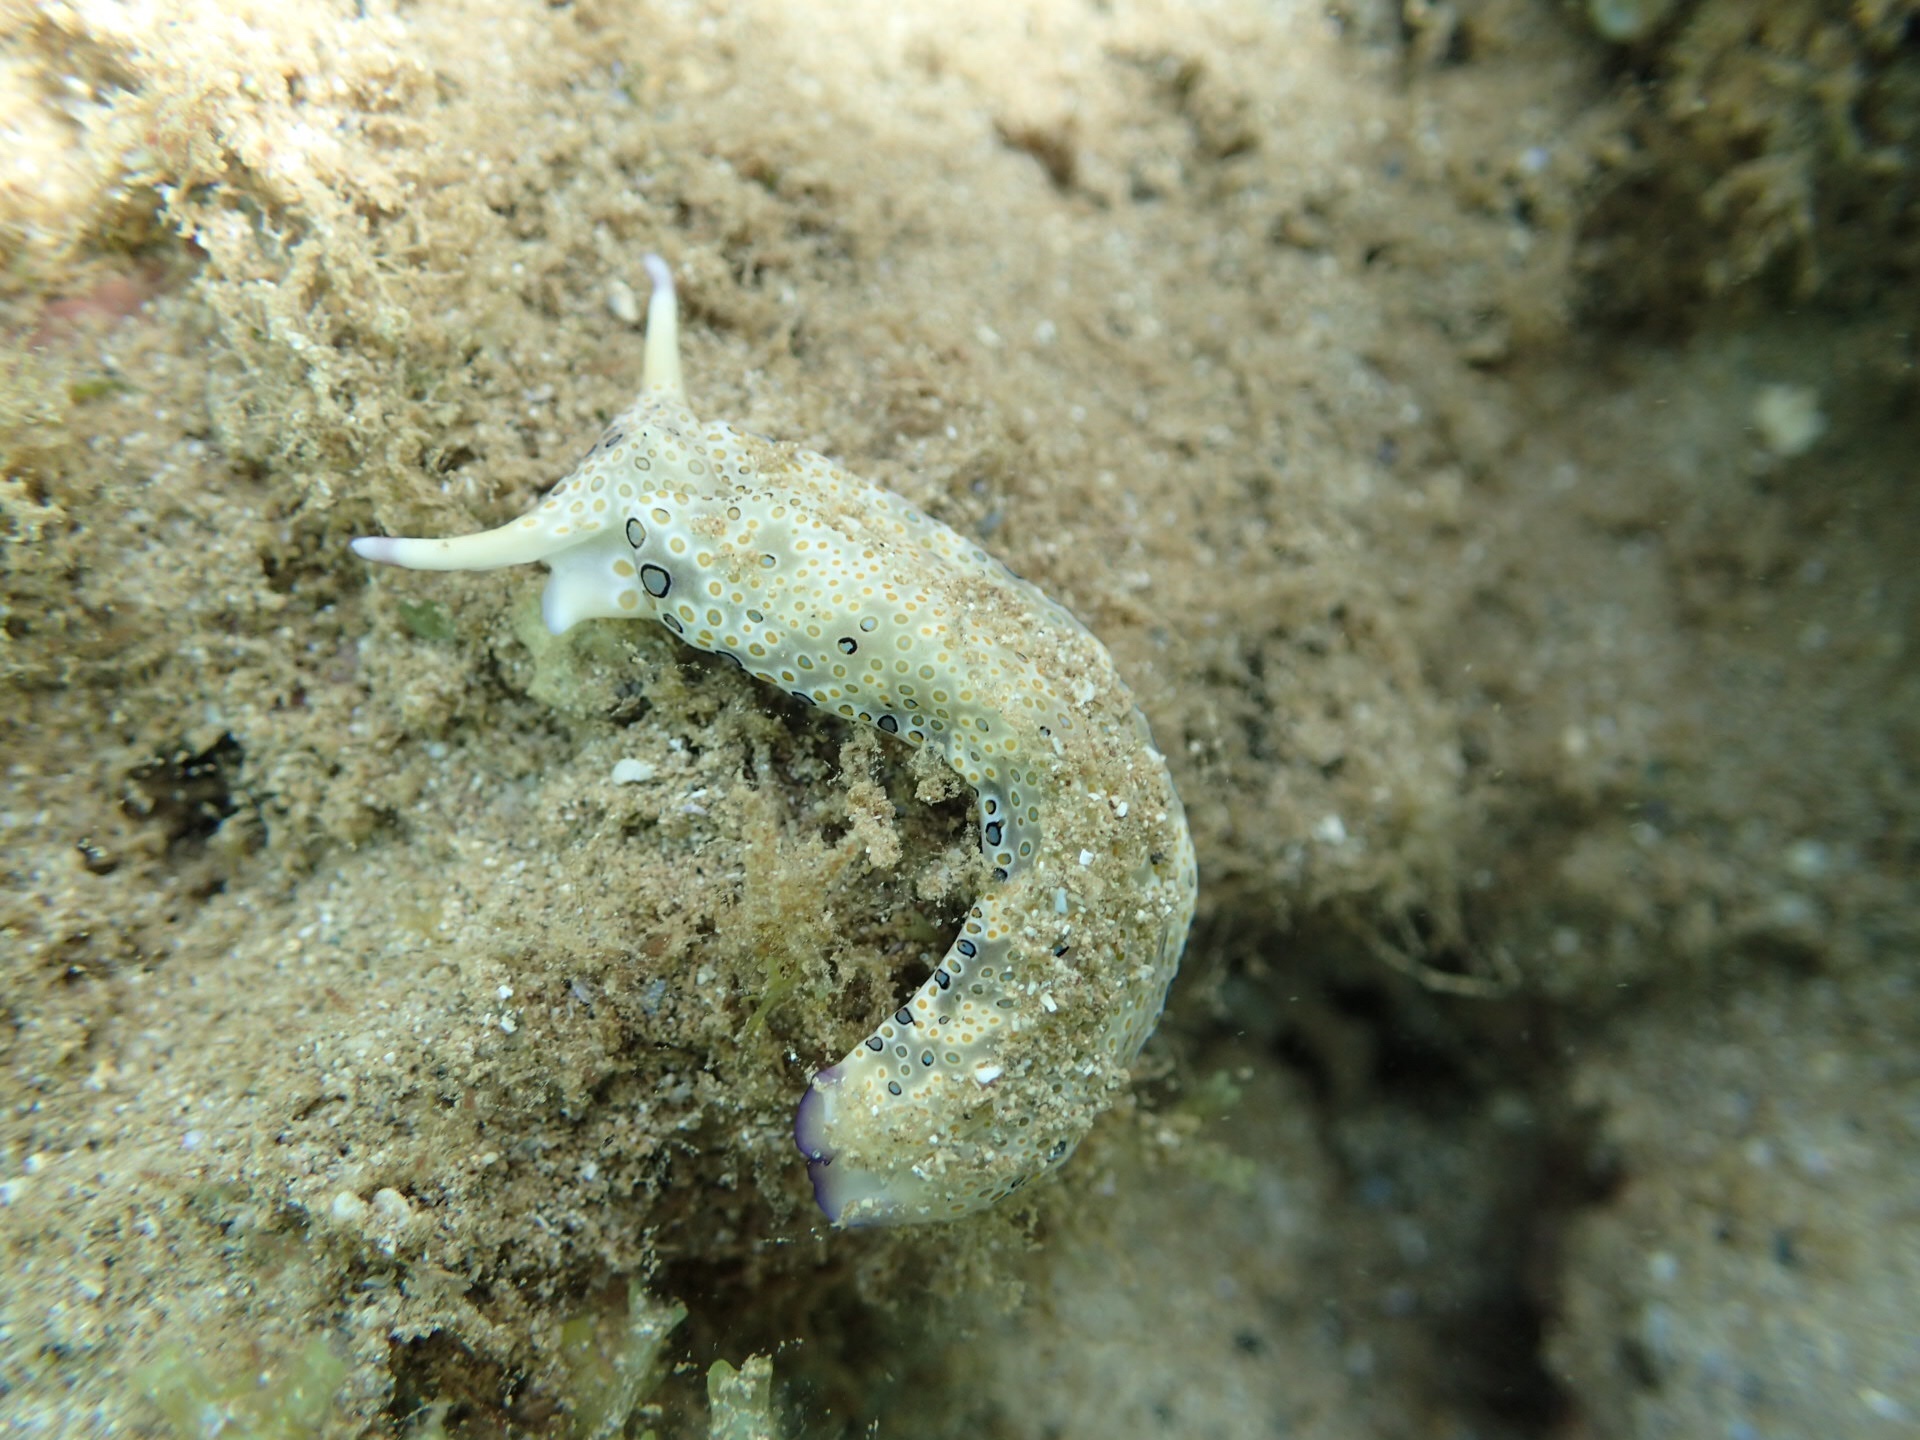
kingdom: Animalia
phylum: Mollusca
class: Gastropoda
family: Plakobranchidae
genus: Plakobranchus
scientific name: Plakobranchus ocellatus
